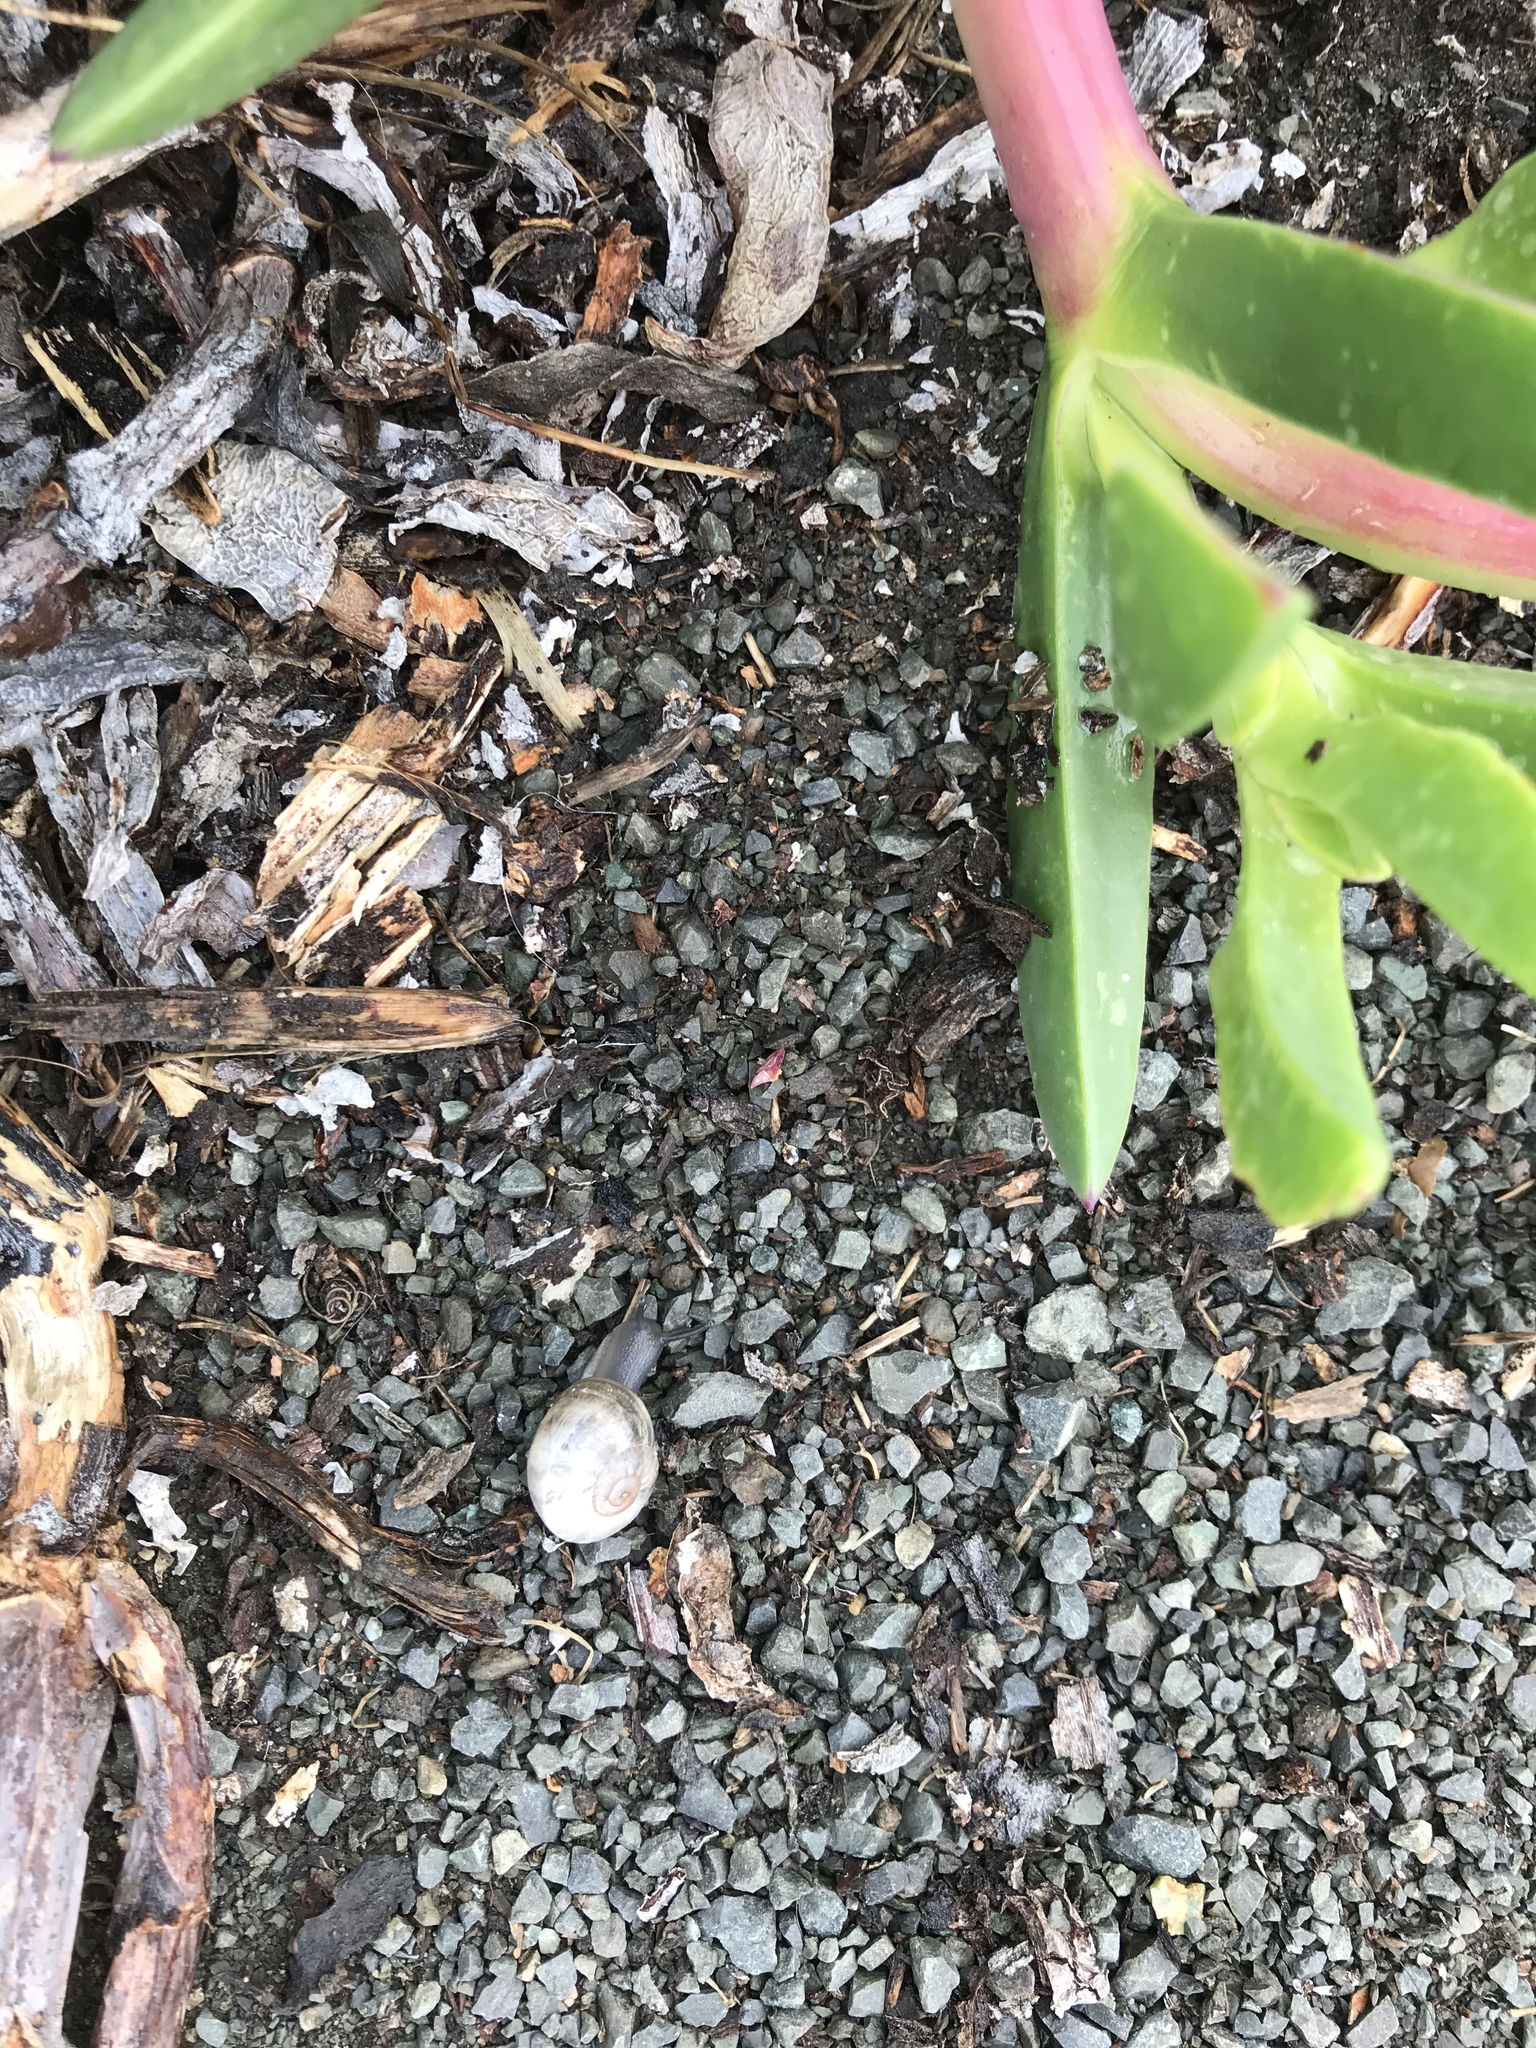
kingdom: Animalia
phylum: Mollusca
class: Gastropoda
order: Stylommatophora
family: Helicidae
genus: Otala
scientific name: Otala lactea
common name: Milk snail
